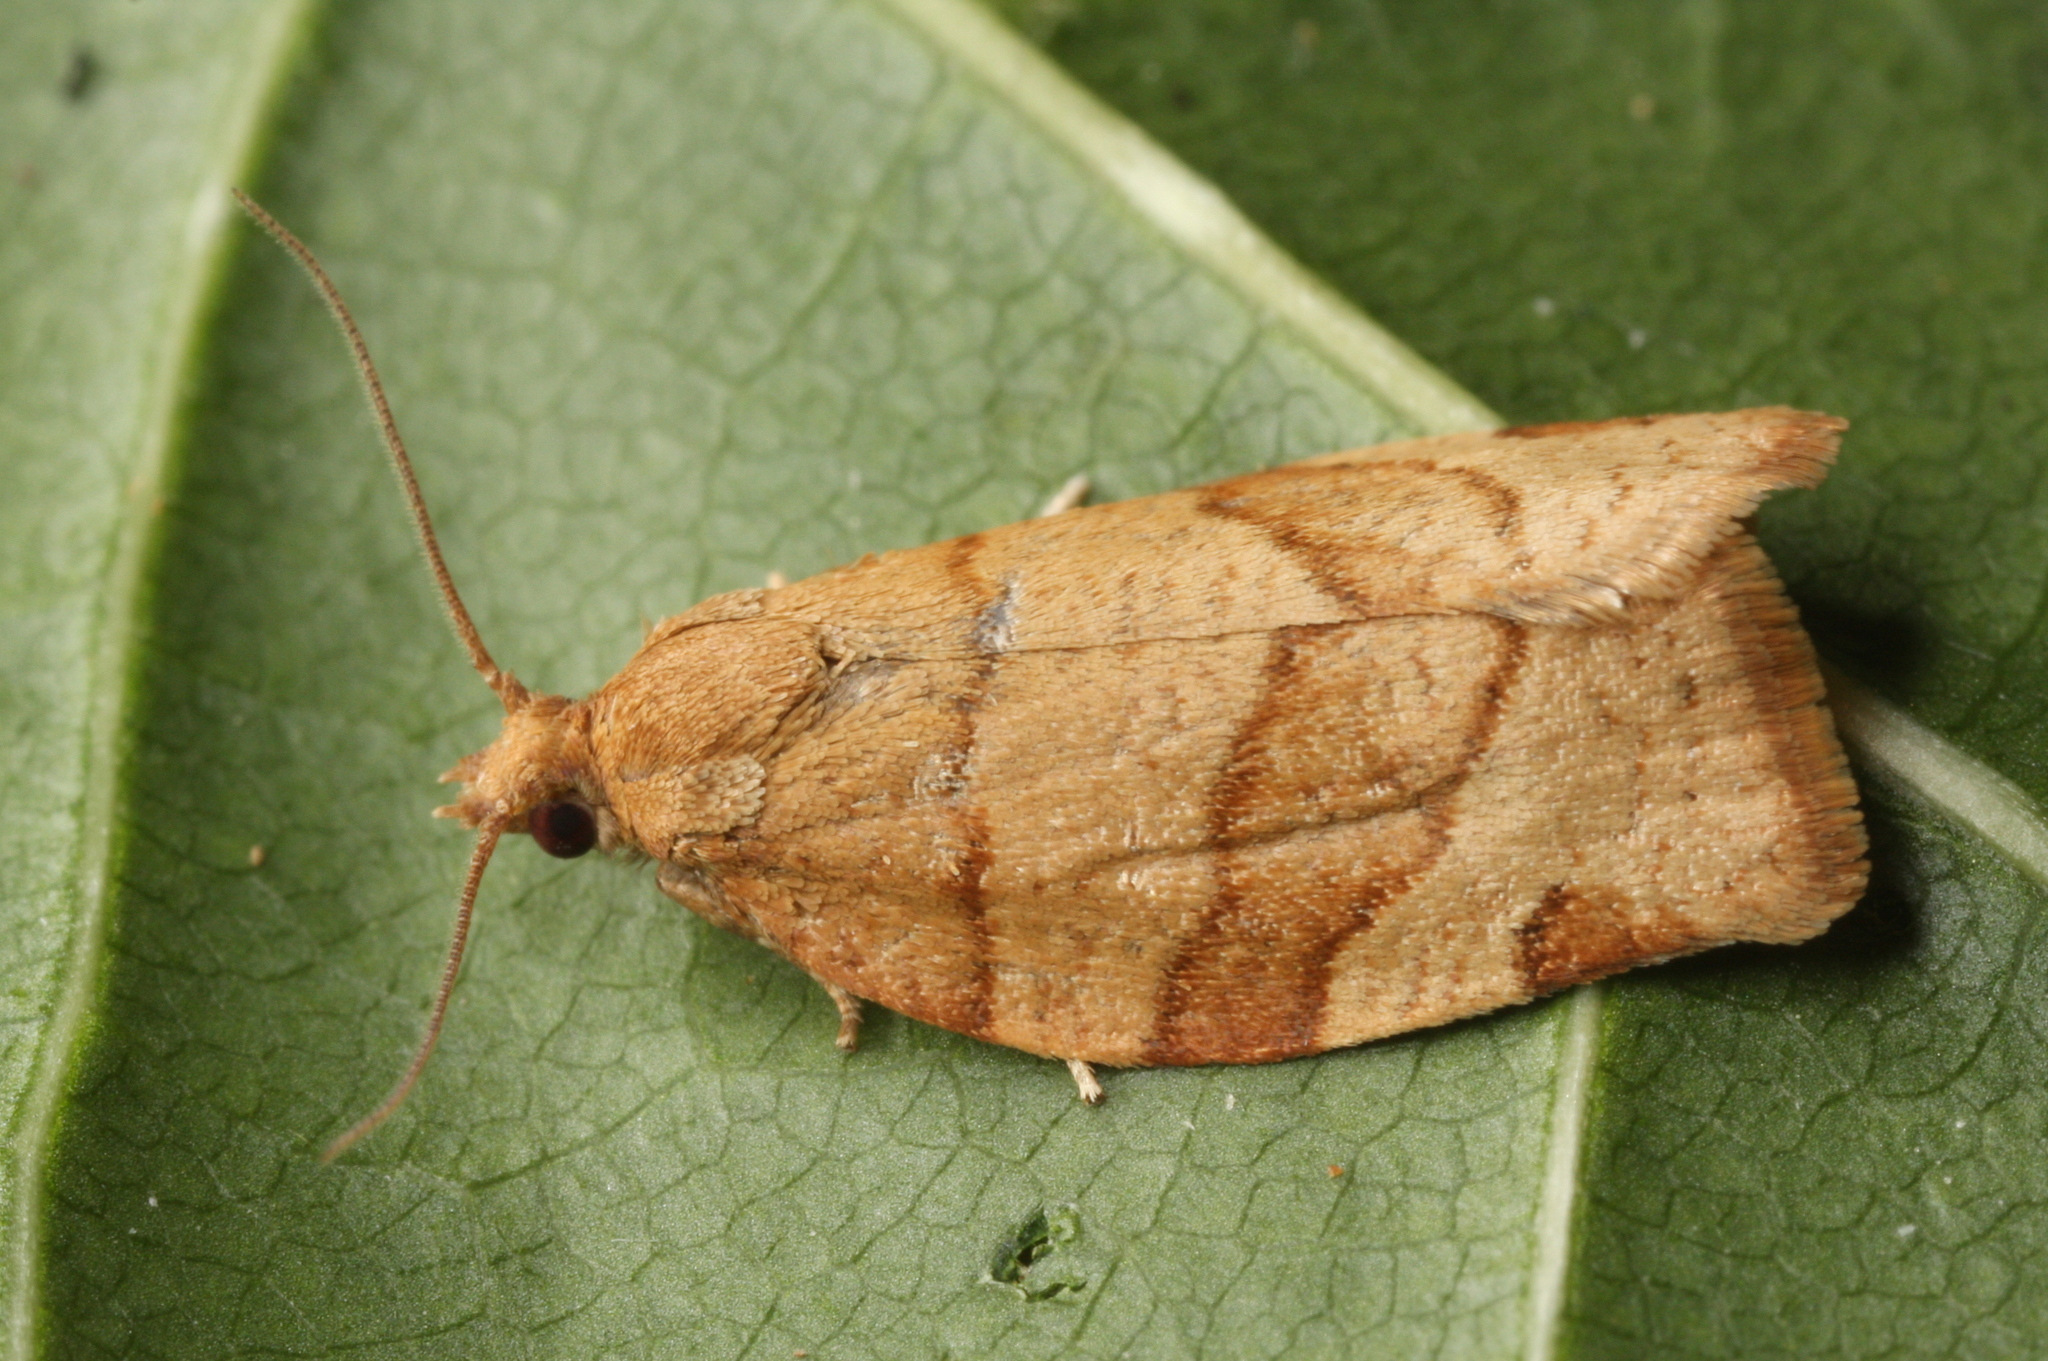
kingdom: Animalia
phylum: Arthropoda
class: Insecta
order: Lepidoptera
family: Tortricidae
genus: Pandemis
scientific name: Pandemis cerasana
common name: Barred fruit-tree tortrix
